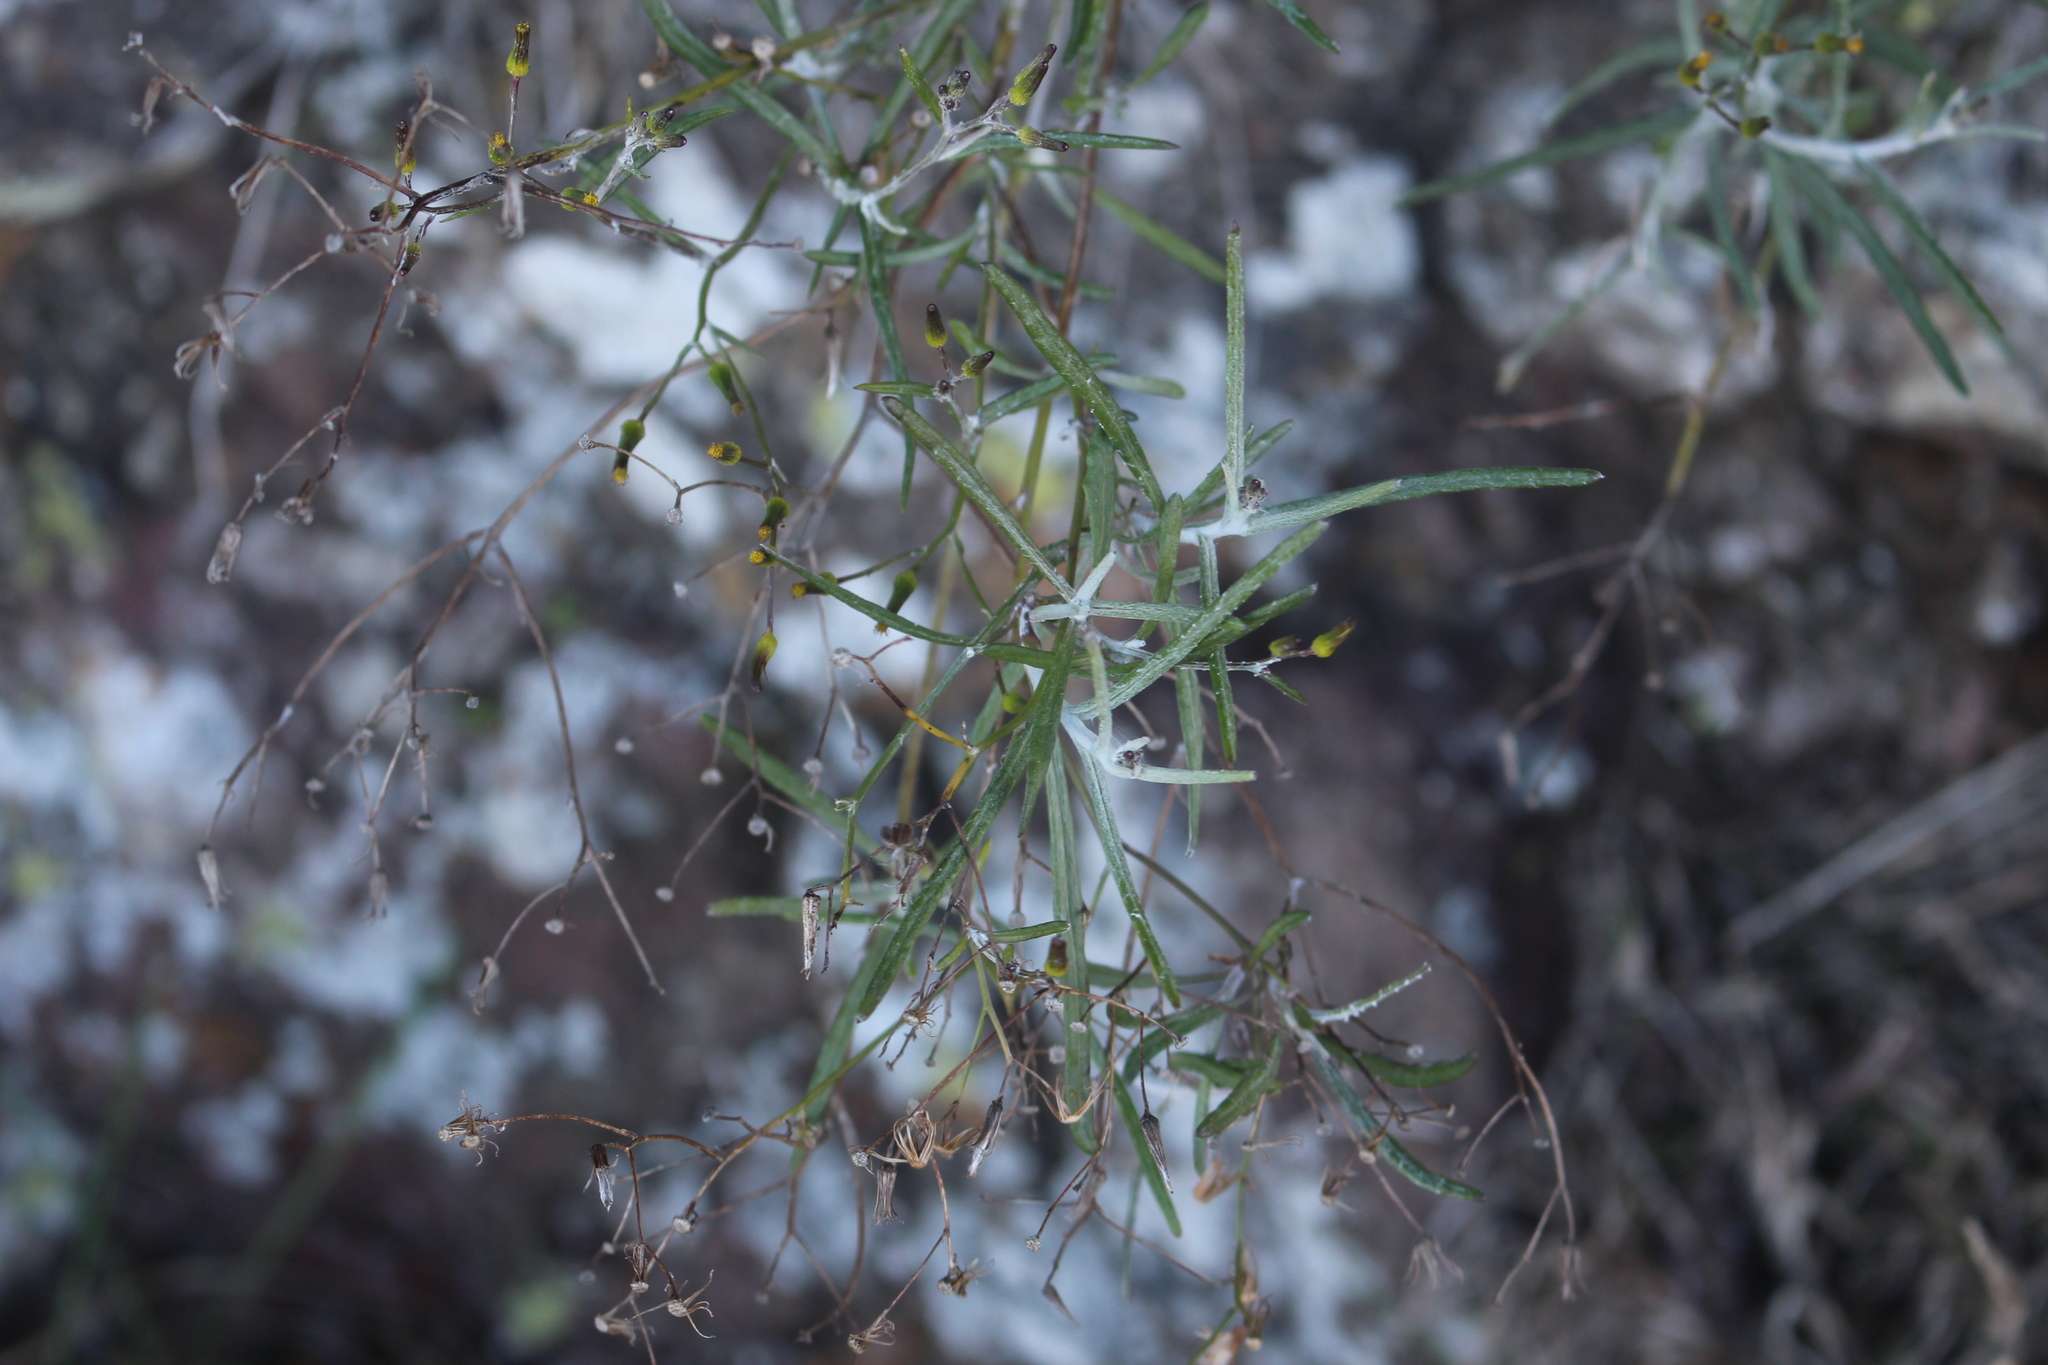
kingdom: Plantae
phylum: Tracheophyta
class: Magnoliopsida
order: Asterales
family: Asteraceae
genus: Senecio
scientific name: Senecio quadridentatus
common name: Cotton fireweed
